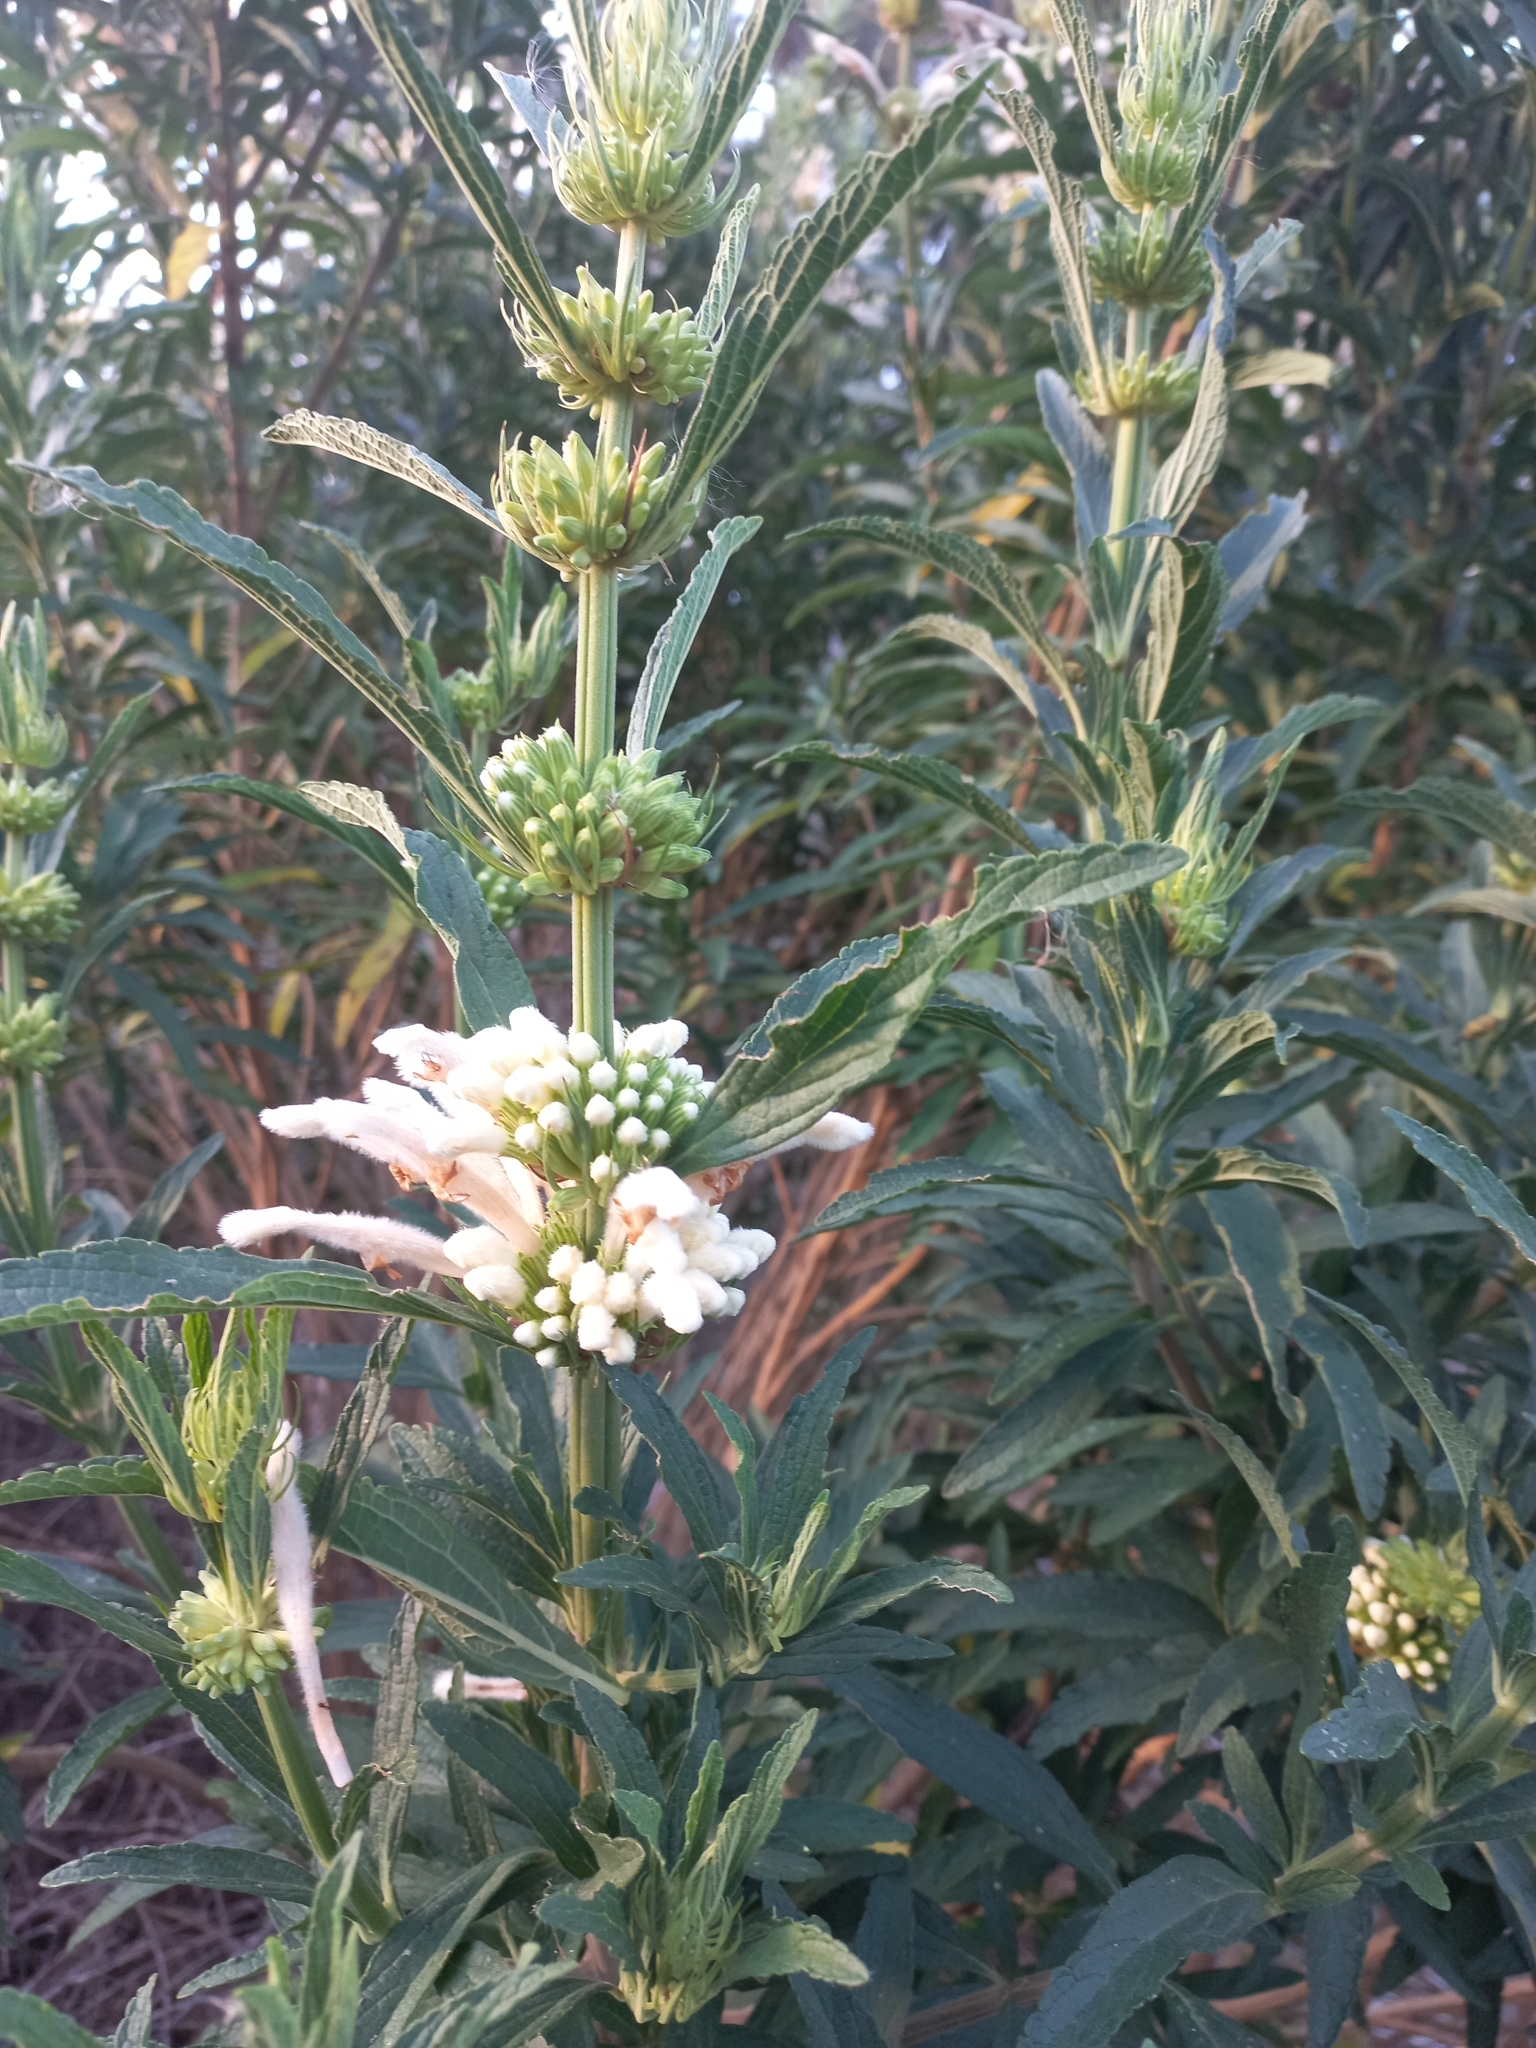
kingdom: Plantae
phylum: Tracheophyta
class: Magnoliopsida
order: Lamiales
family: Lamiaceae
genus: Leonotis
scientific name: Leonotis leonurus
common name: Lion's ear
